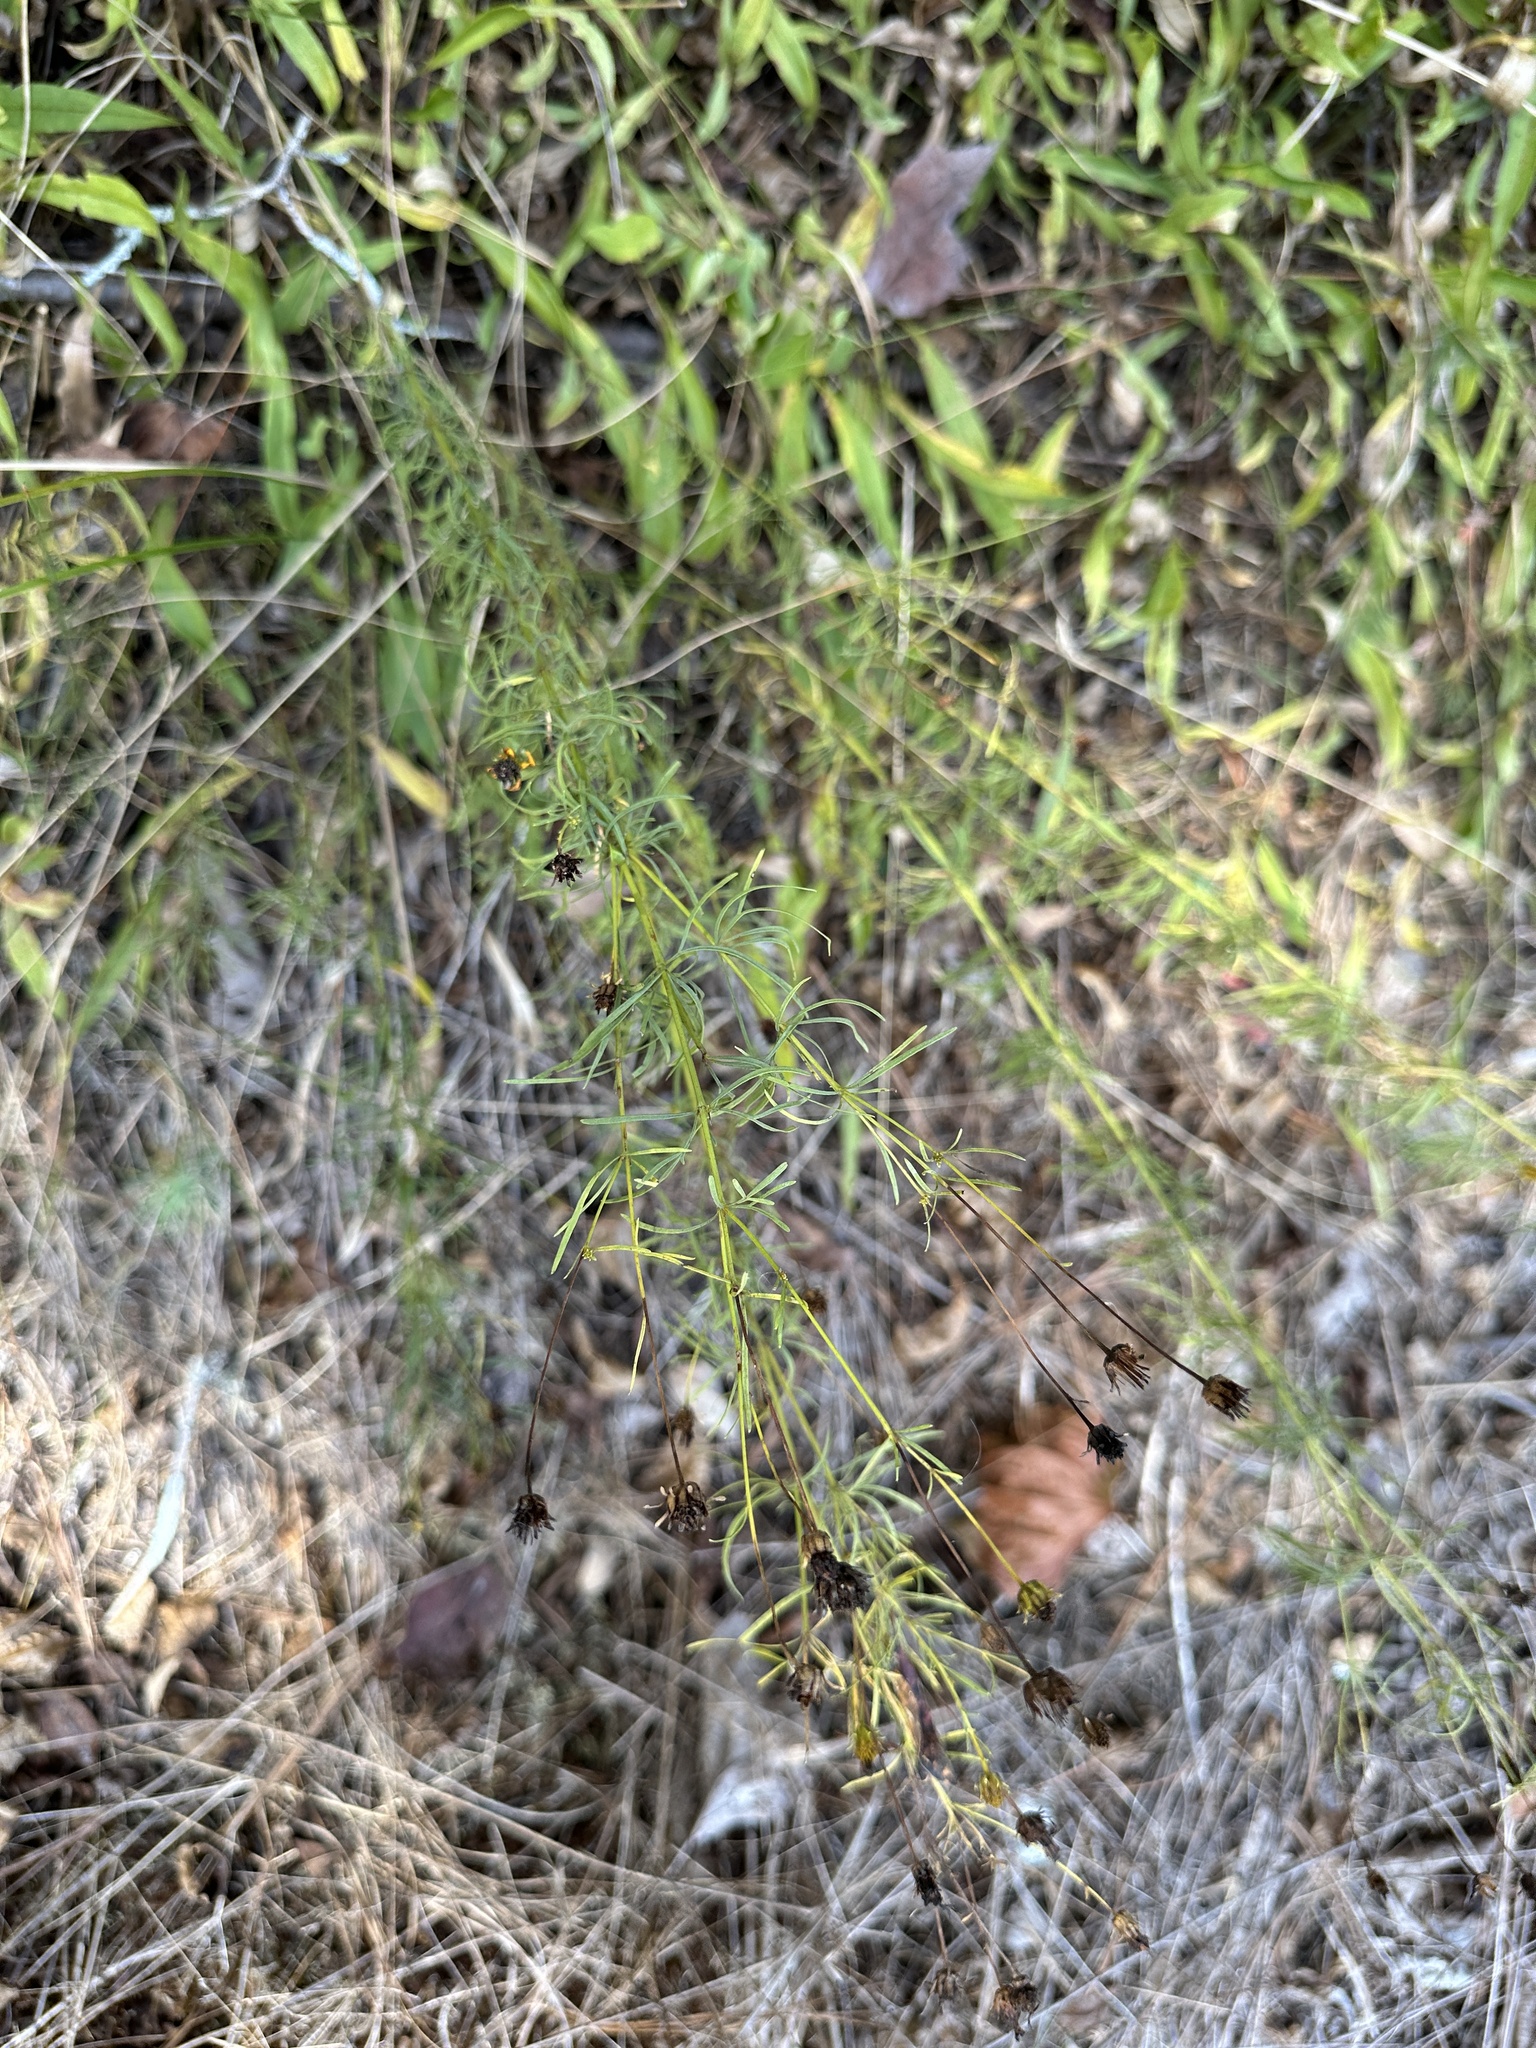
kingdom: Plantae
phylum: Tracheophyta
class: Magnoliopsida
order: Asterales
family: Asteraceae
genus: Coreopsis
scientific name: Coreopsis pulchra
